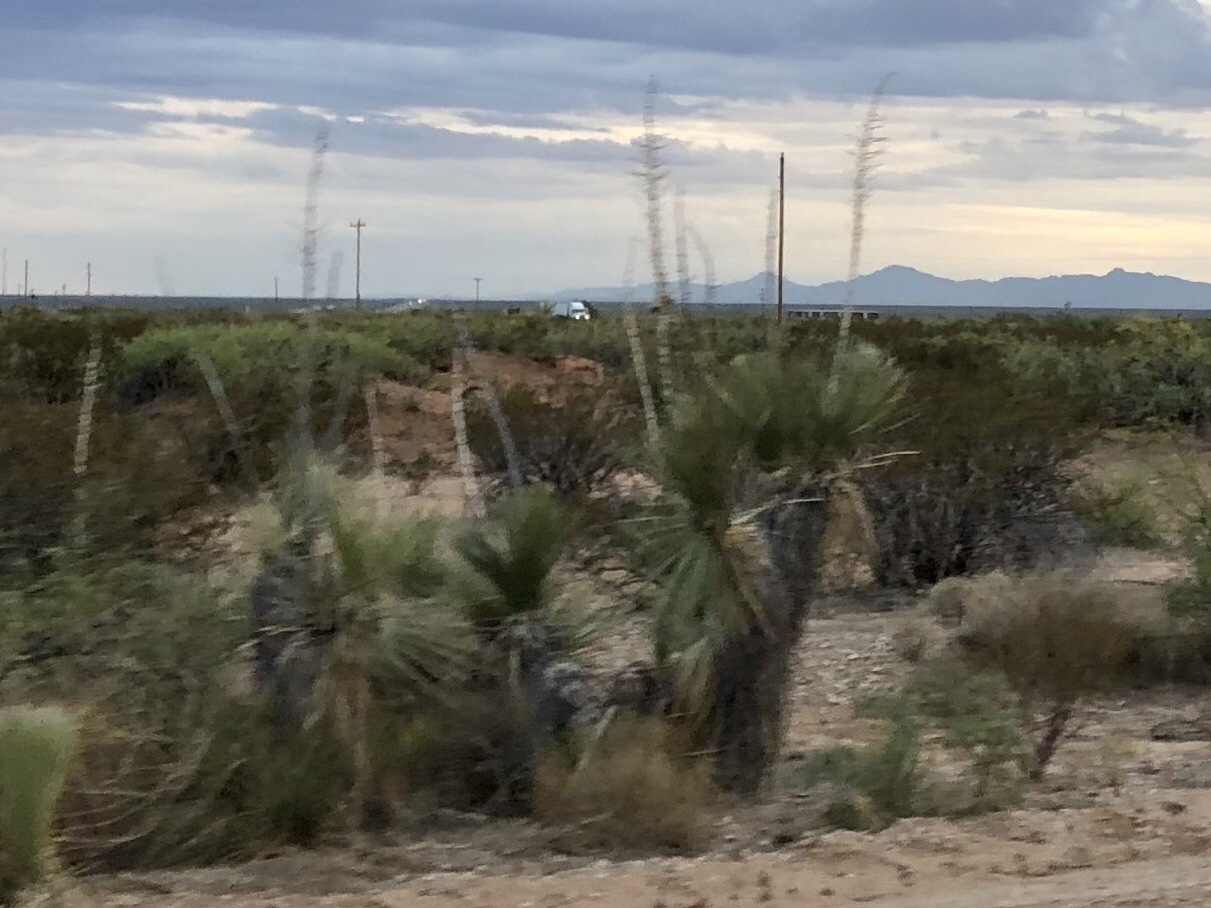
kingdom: Plantae
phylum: Tracheophyta
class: Liliopsida
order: Asparagales
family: Asparagaceae
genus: Yucca
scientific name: Yucca elata
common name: Palmella
